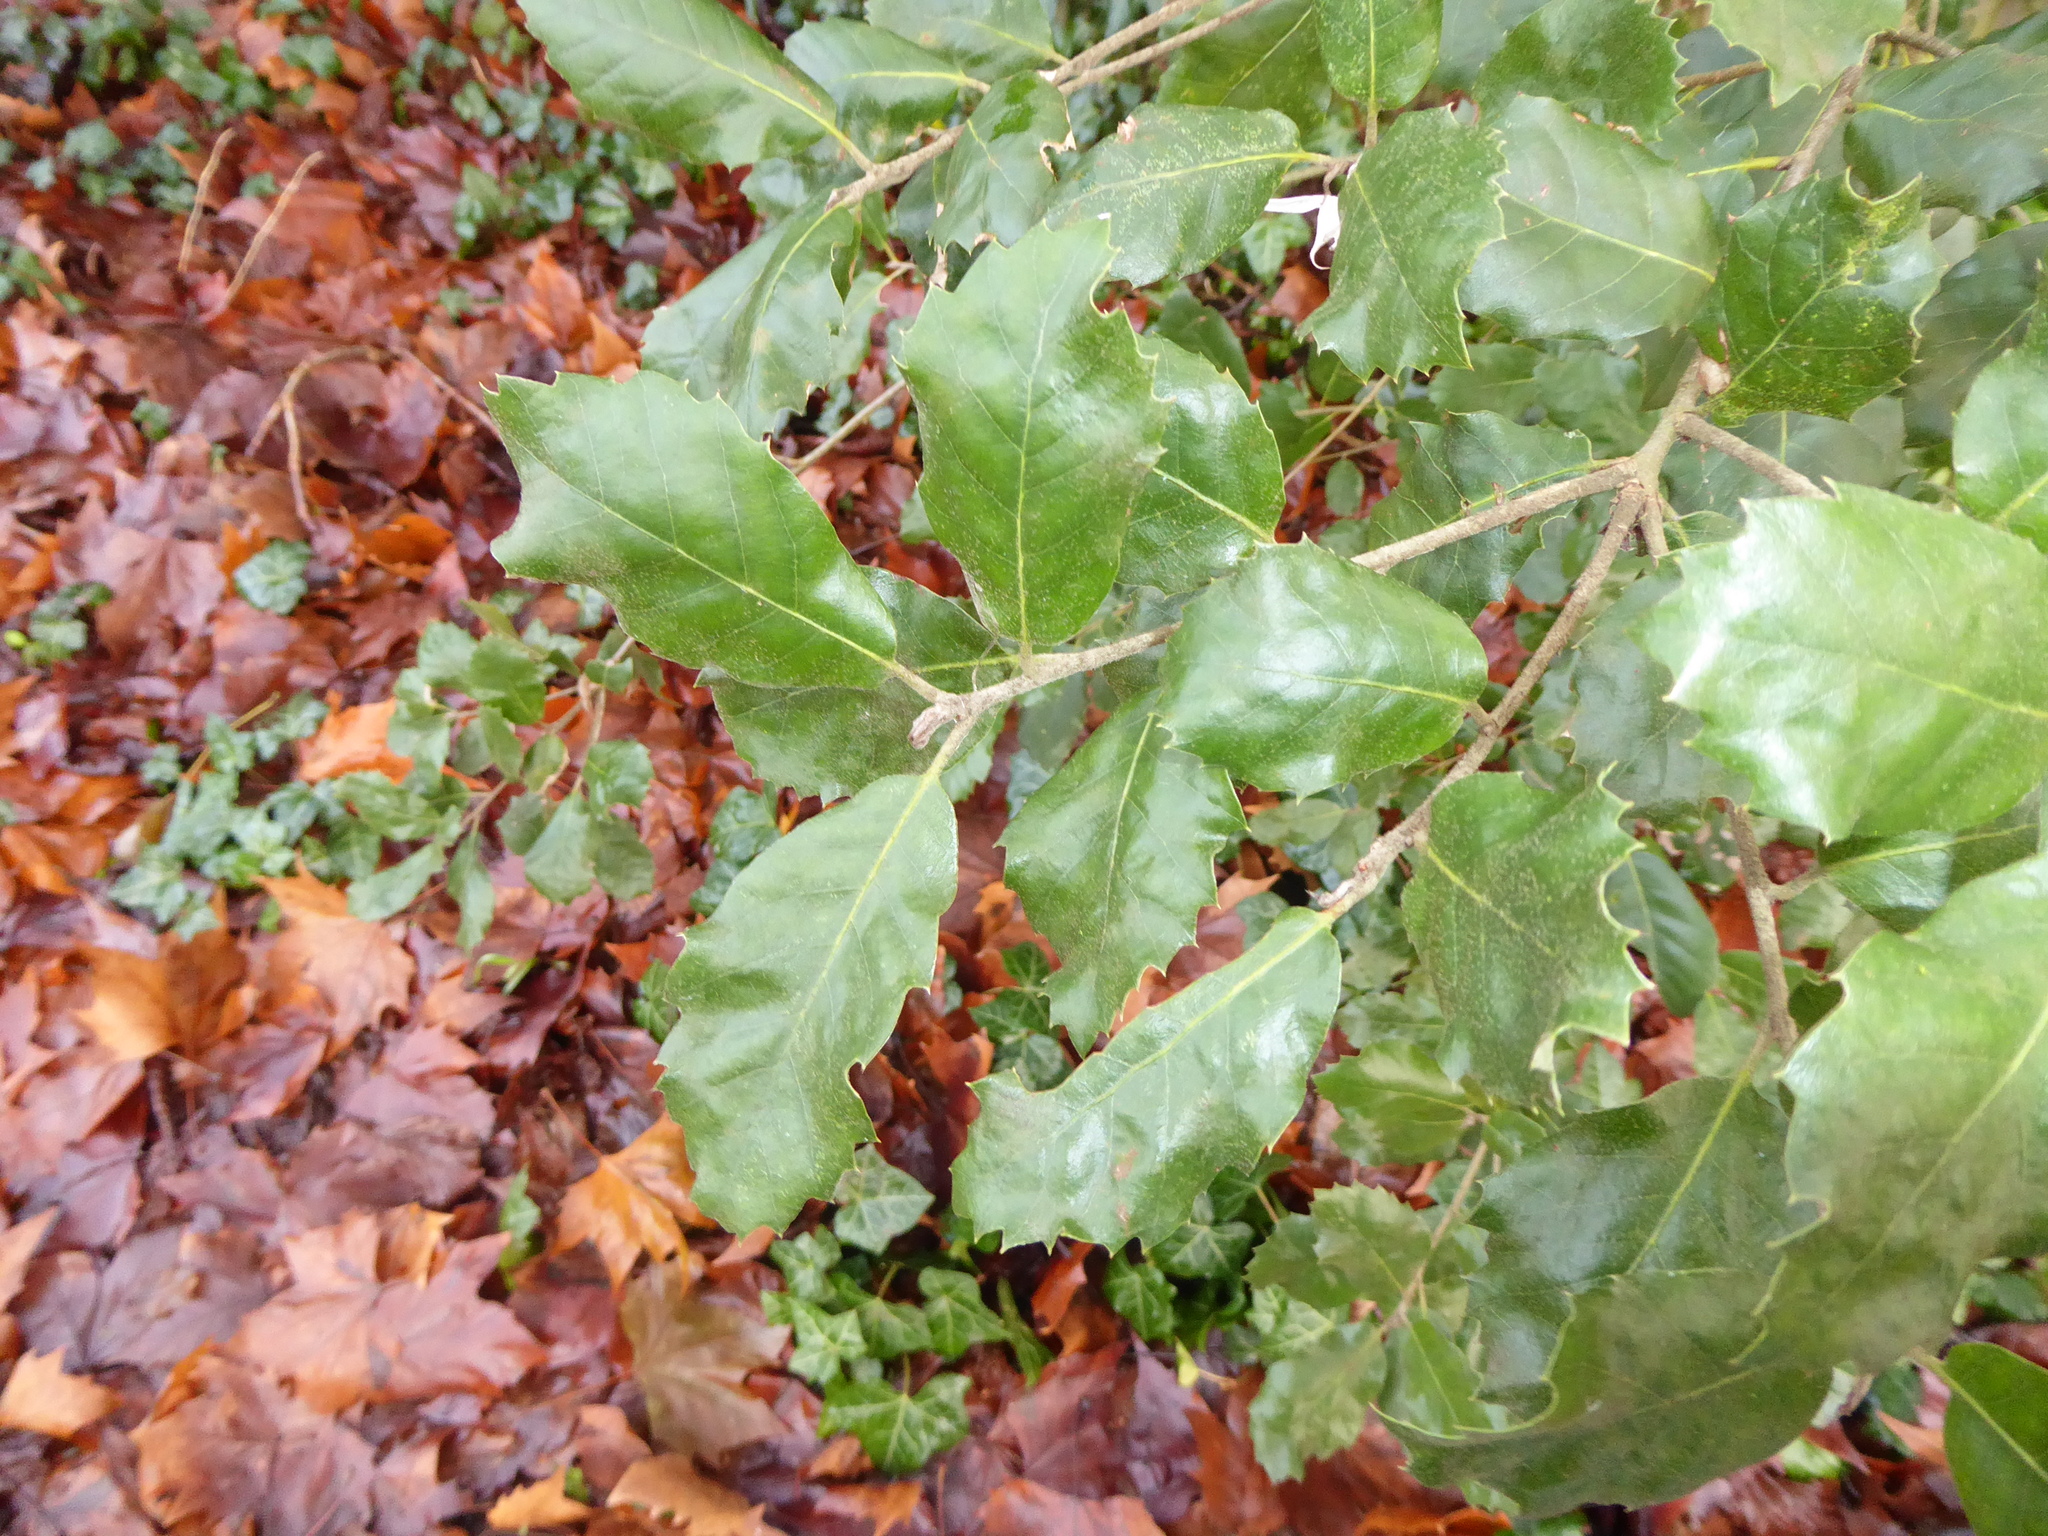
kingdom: Plantae
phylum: Tracheophyta
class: Magnoliopsida
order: Fagales
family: Fagaceae
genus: Quercus
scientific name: Quercus ilex
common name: Evergreen oak
